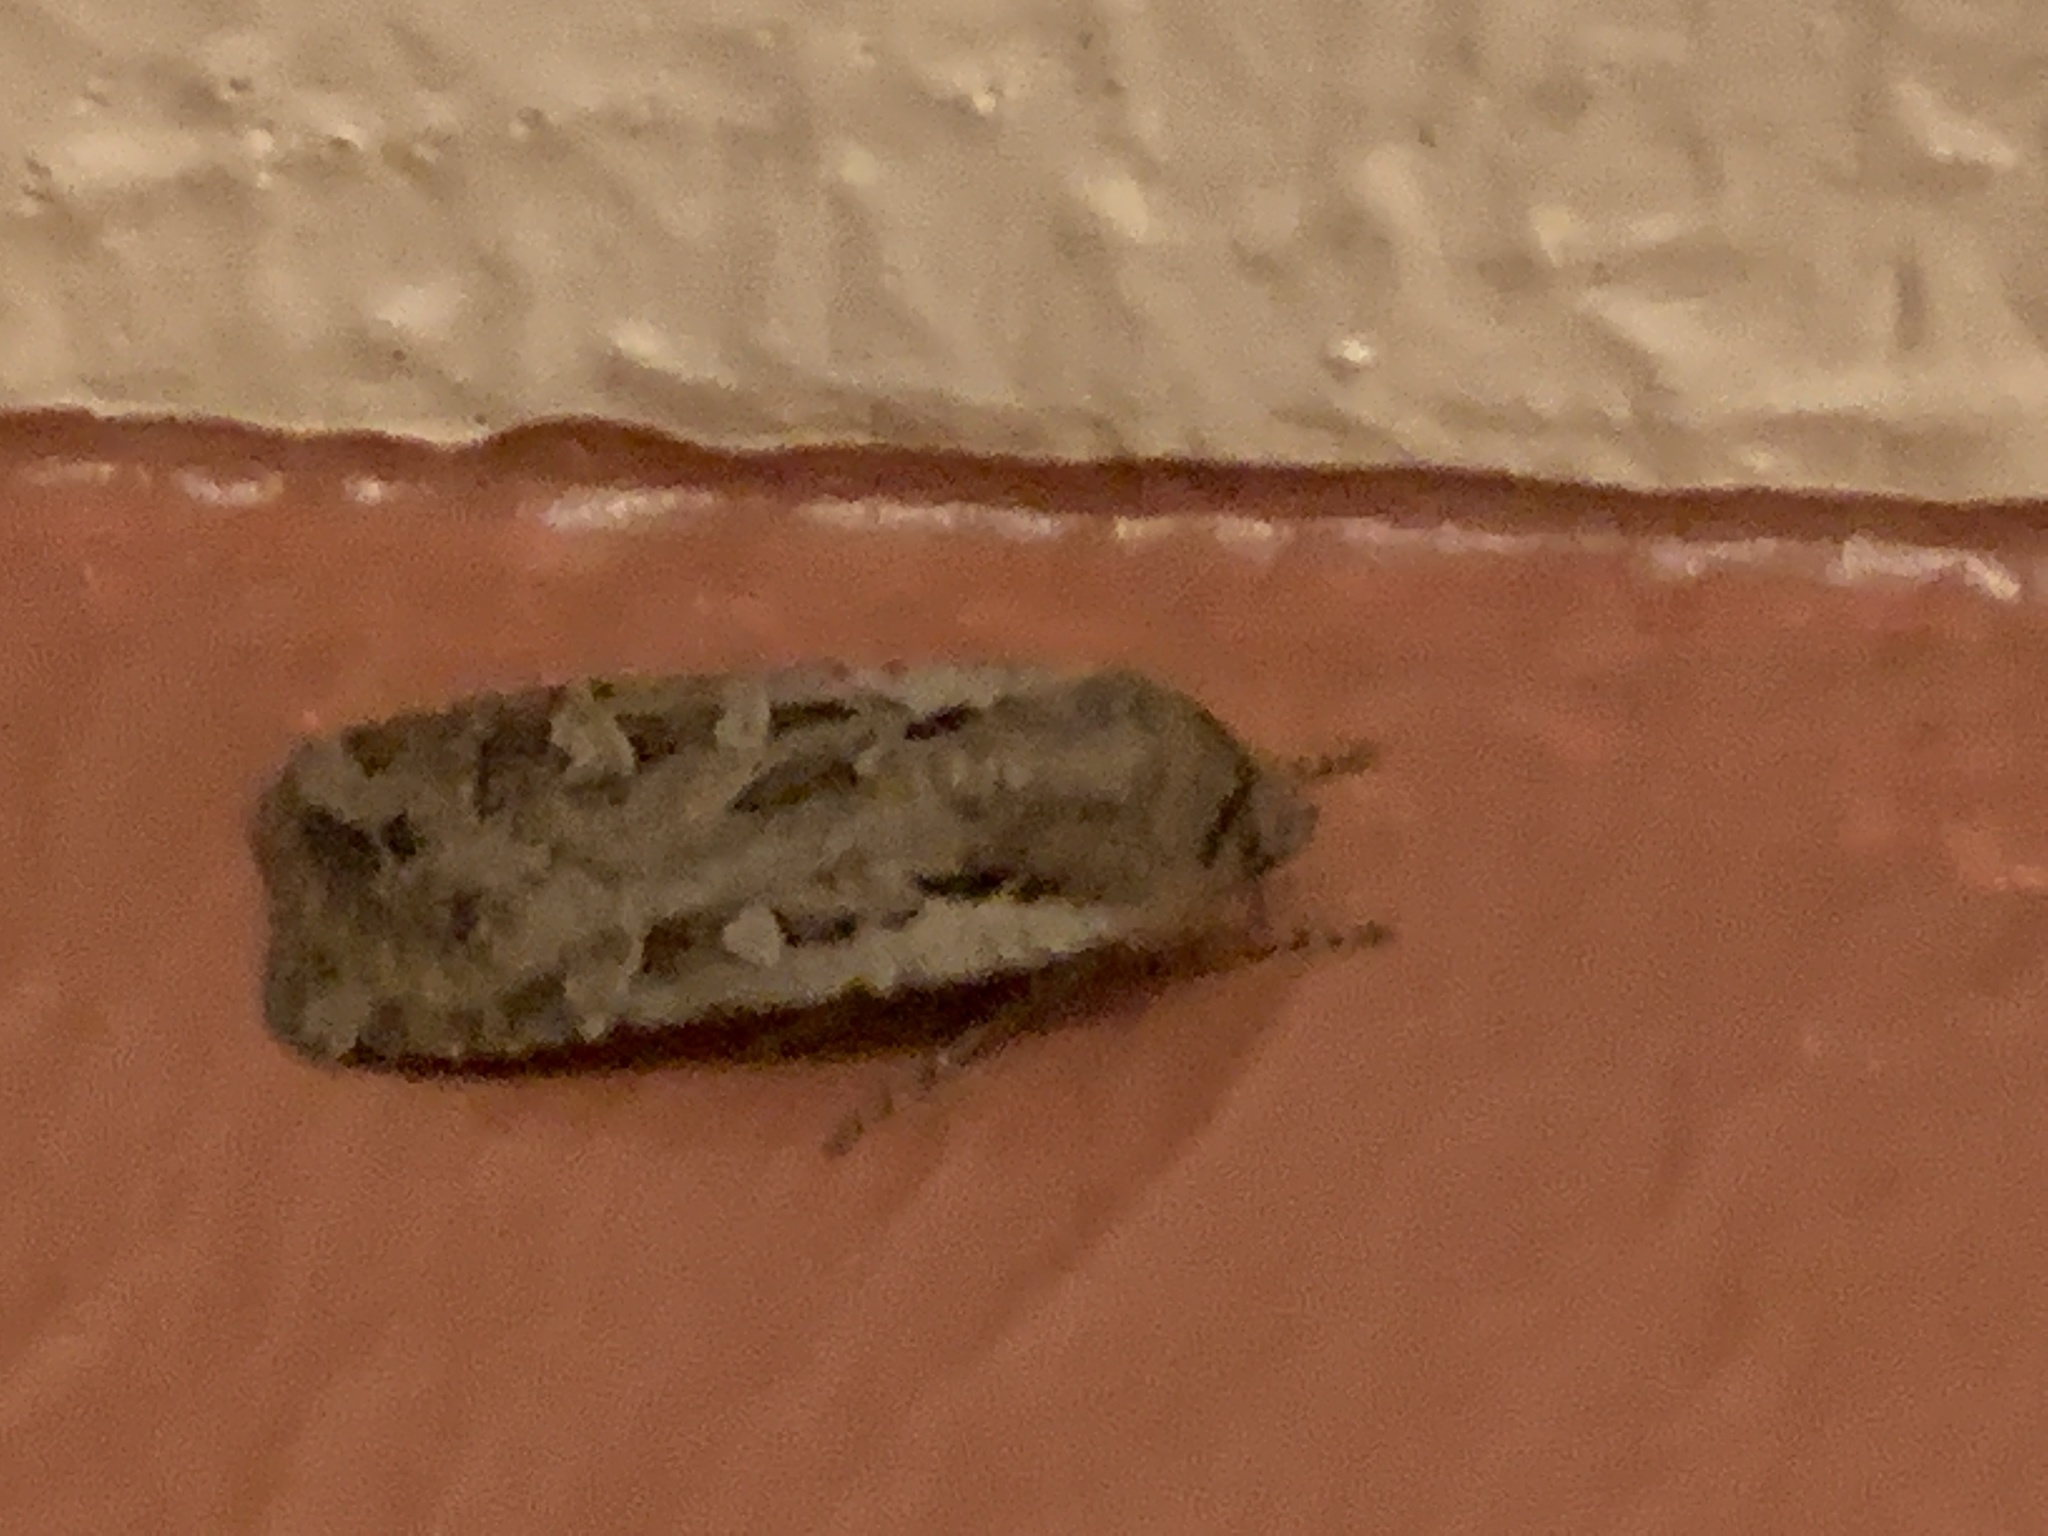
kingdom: Animalia
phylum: Arthropoda
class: Insecta
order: Lepidoptera
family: Noctuidae
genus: Euxoa
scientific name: Euxoa auxiliaris
